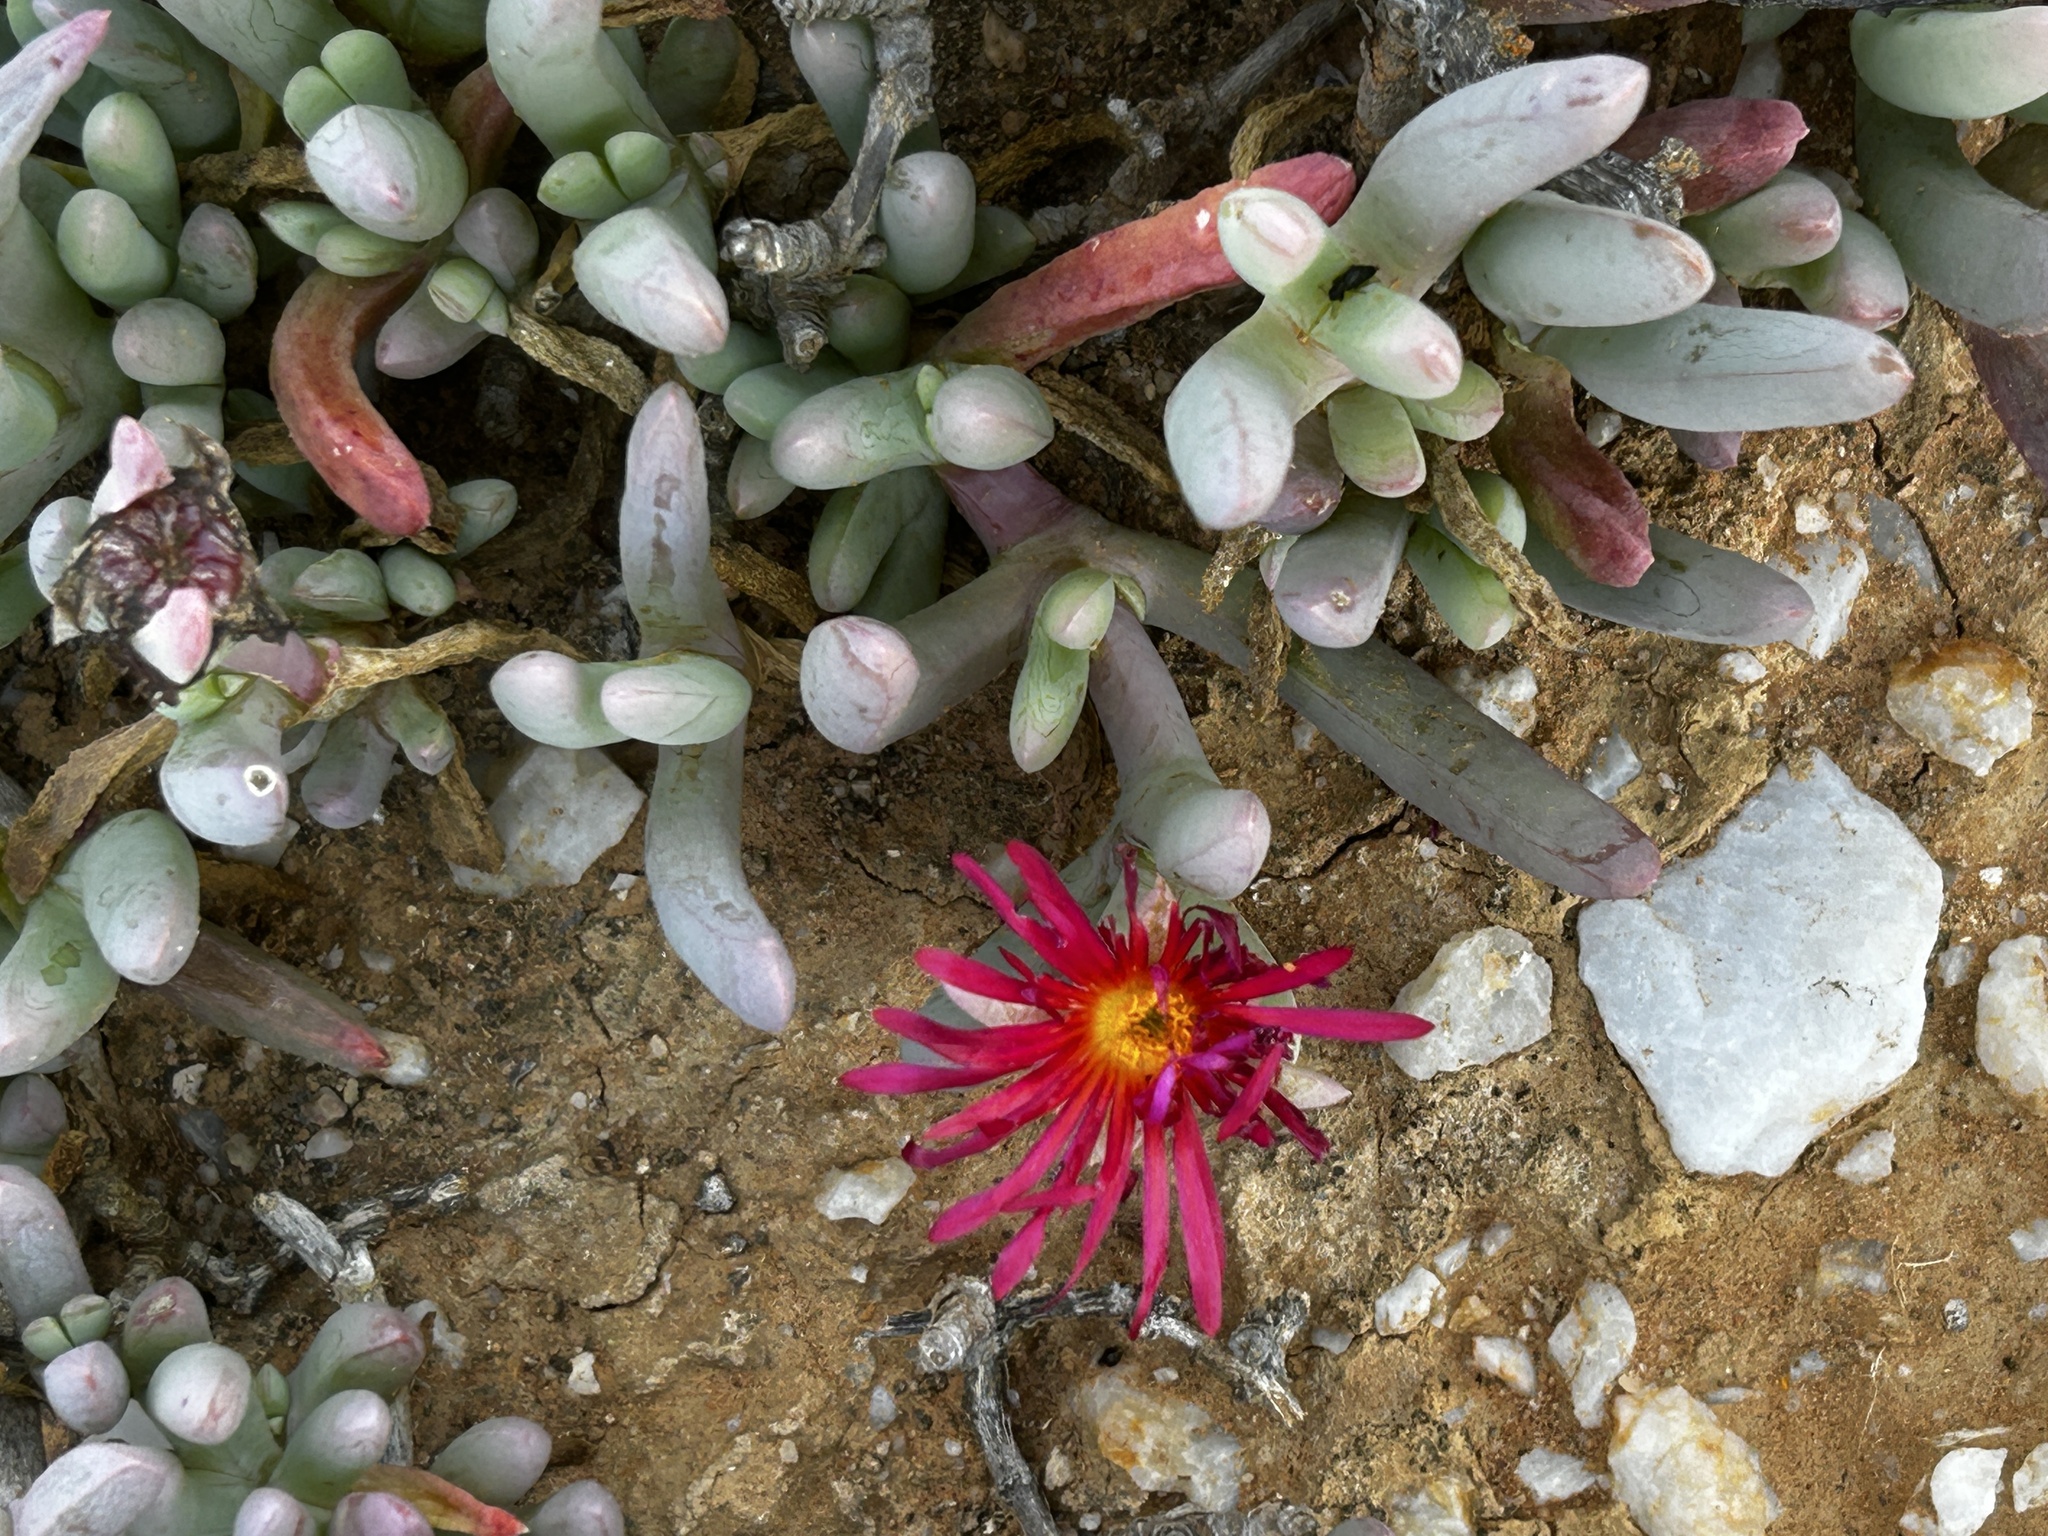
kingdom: Plantae
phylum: Tracheophyta
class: Magnoliopsida
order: Caryophyllales
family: Aizoaceae
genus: Malephora
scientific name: Malephora purpureocrocea
